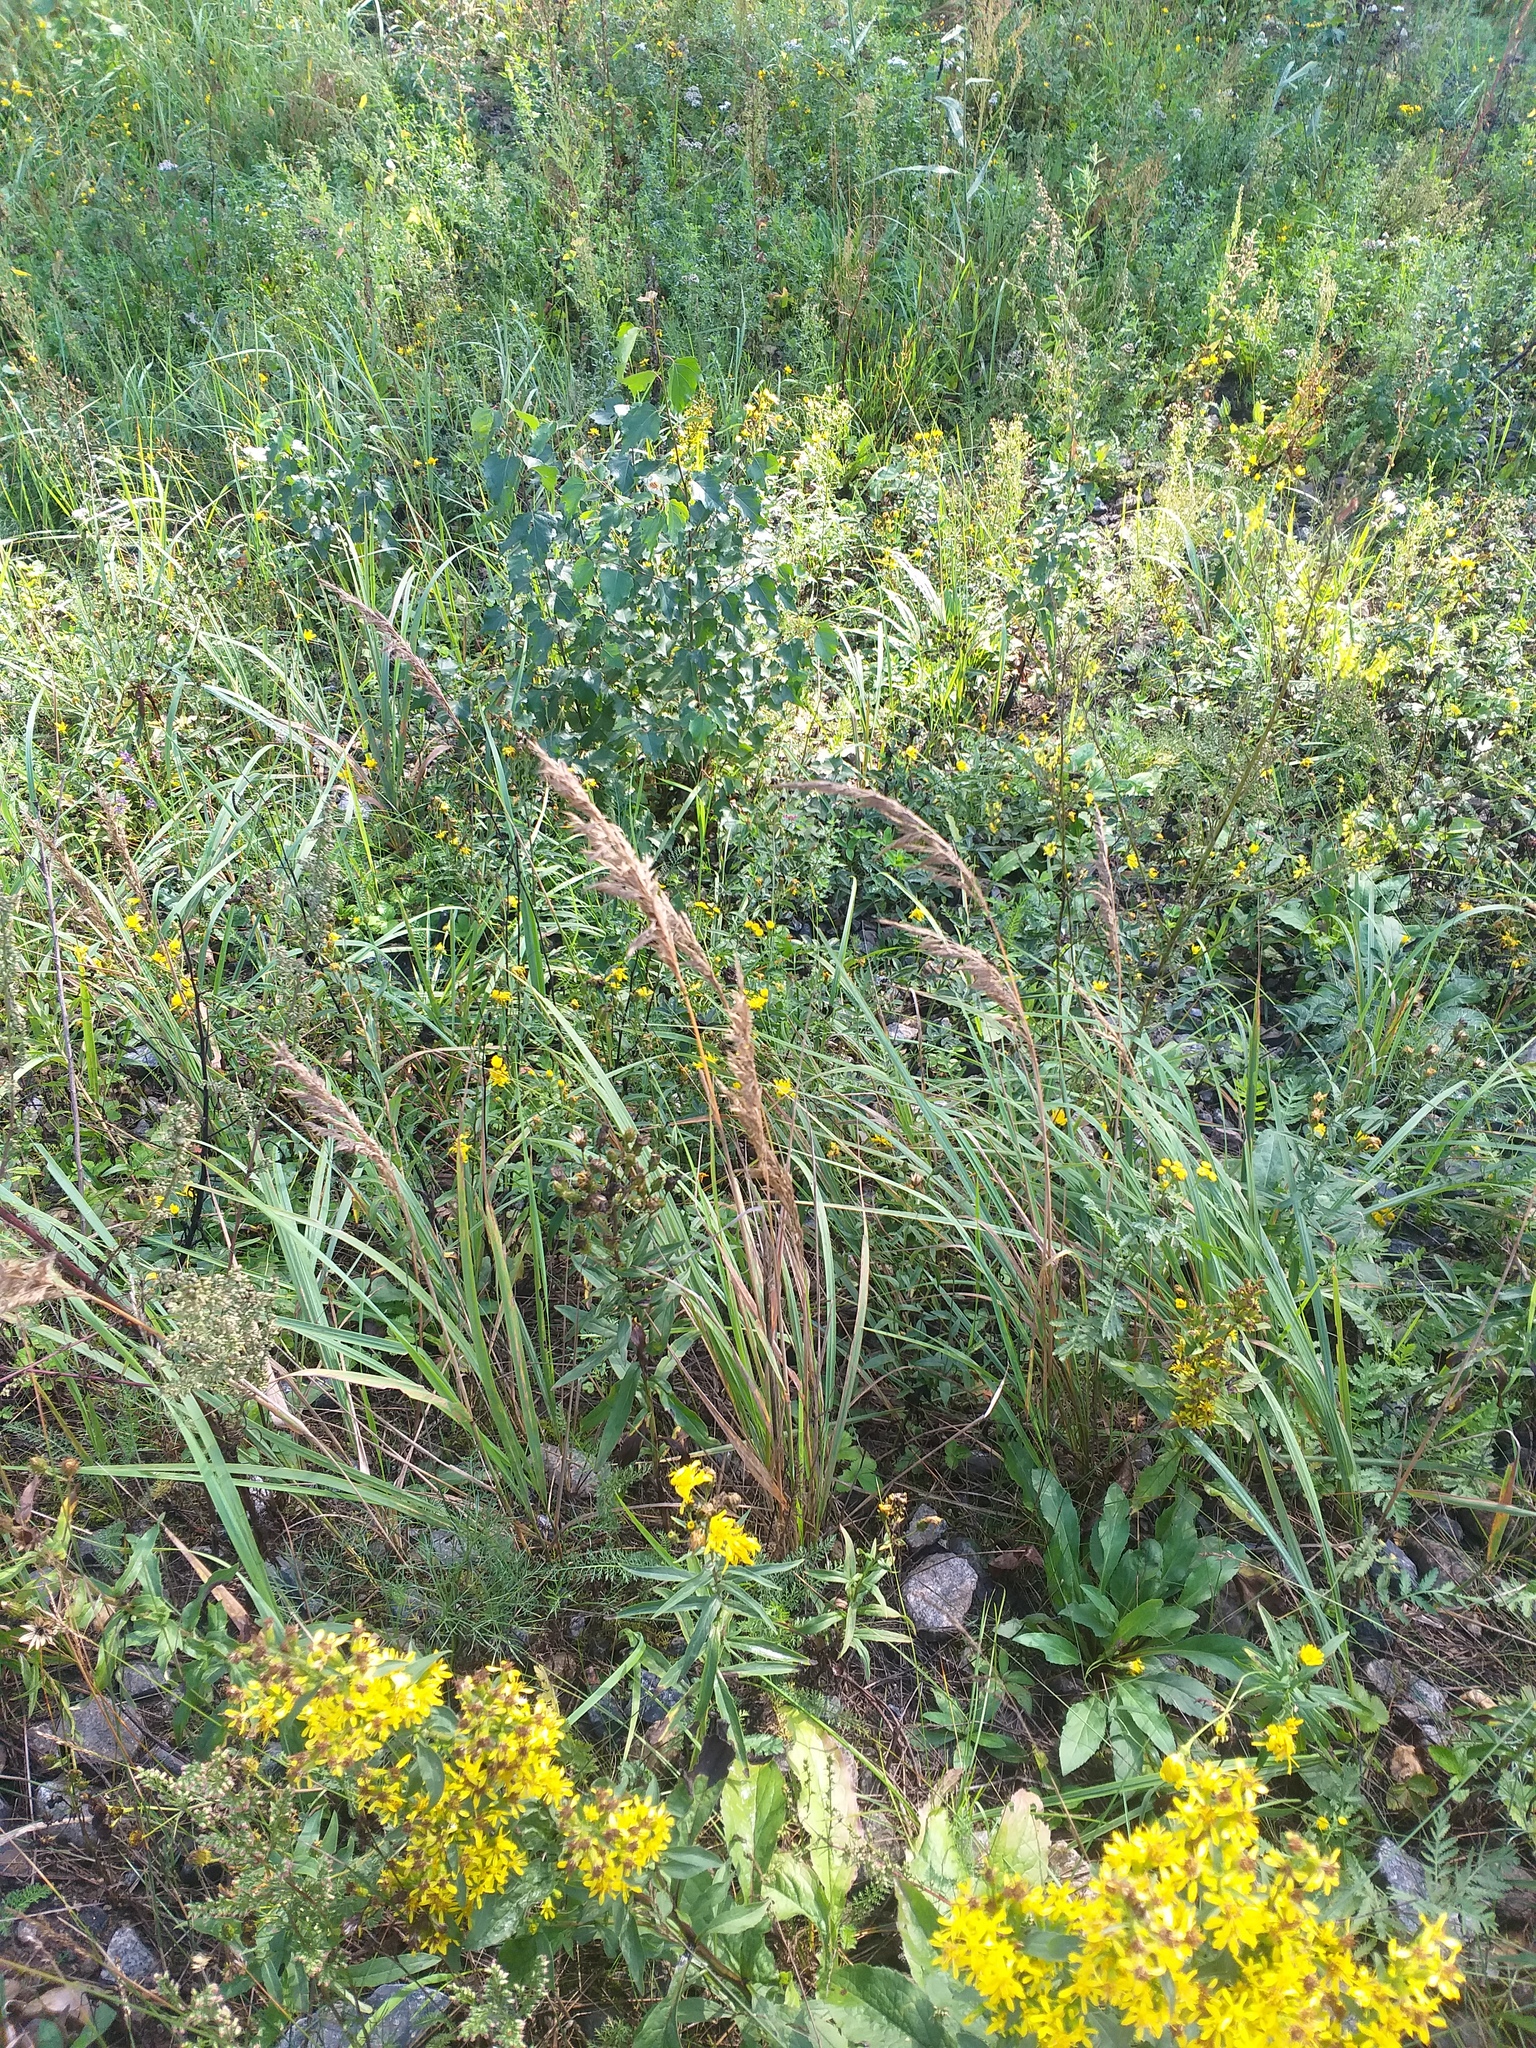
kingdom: Plantae
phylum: Tracheophyta
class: Liliopsida
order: Poales
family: Poaceae
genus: Calamagrostis
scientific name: Calamagrostis epigejos
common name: Wood small-reed
